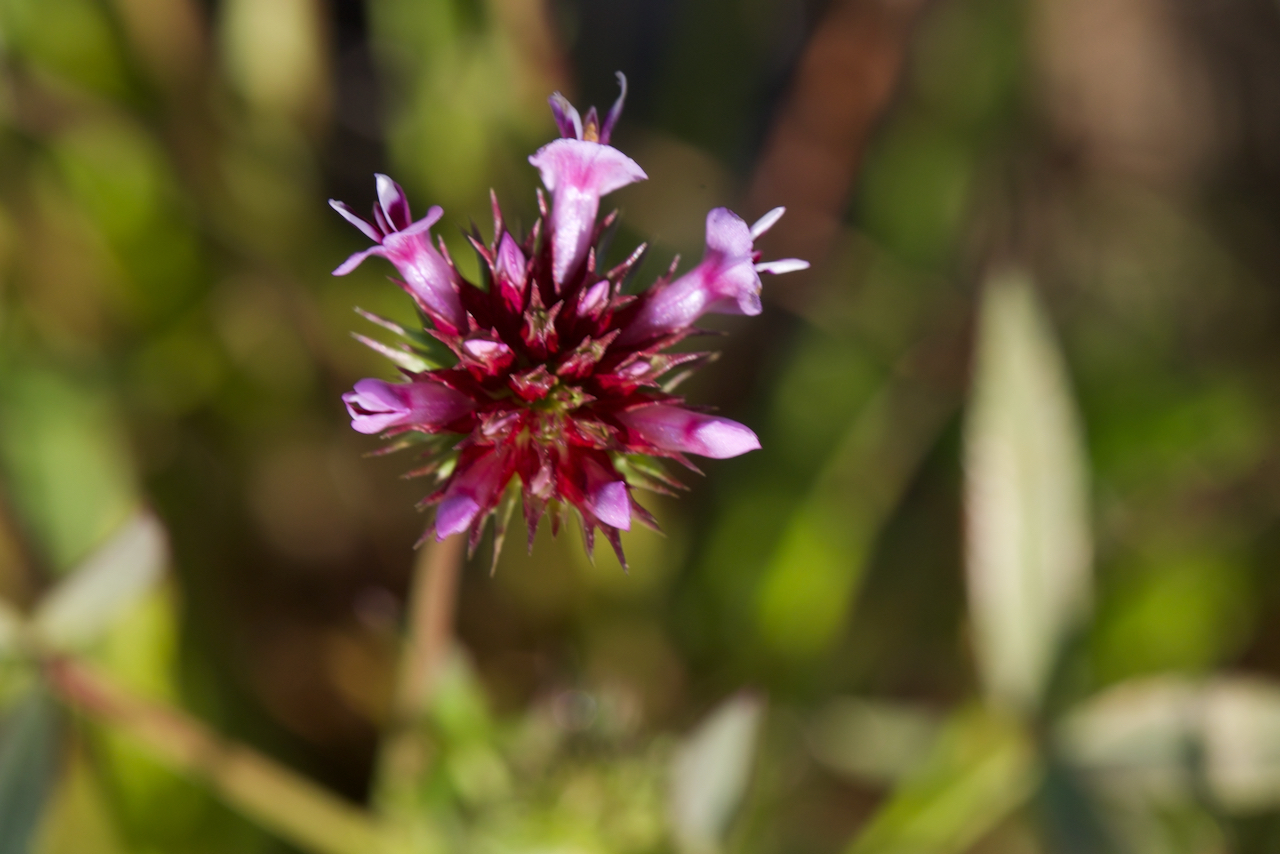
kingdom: Plantae
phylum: Tracheophyta
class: Magnoliopsida
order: Fabales
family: Fabaceae
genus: Trifolium
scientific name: Trifolium willdenovii
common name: Tomcat clover
